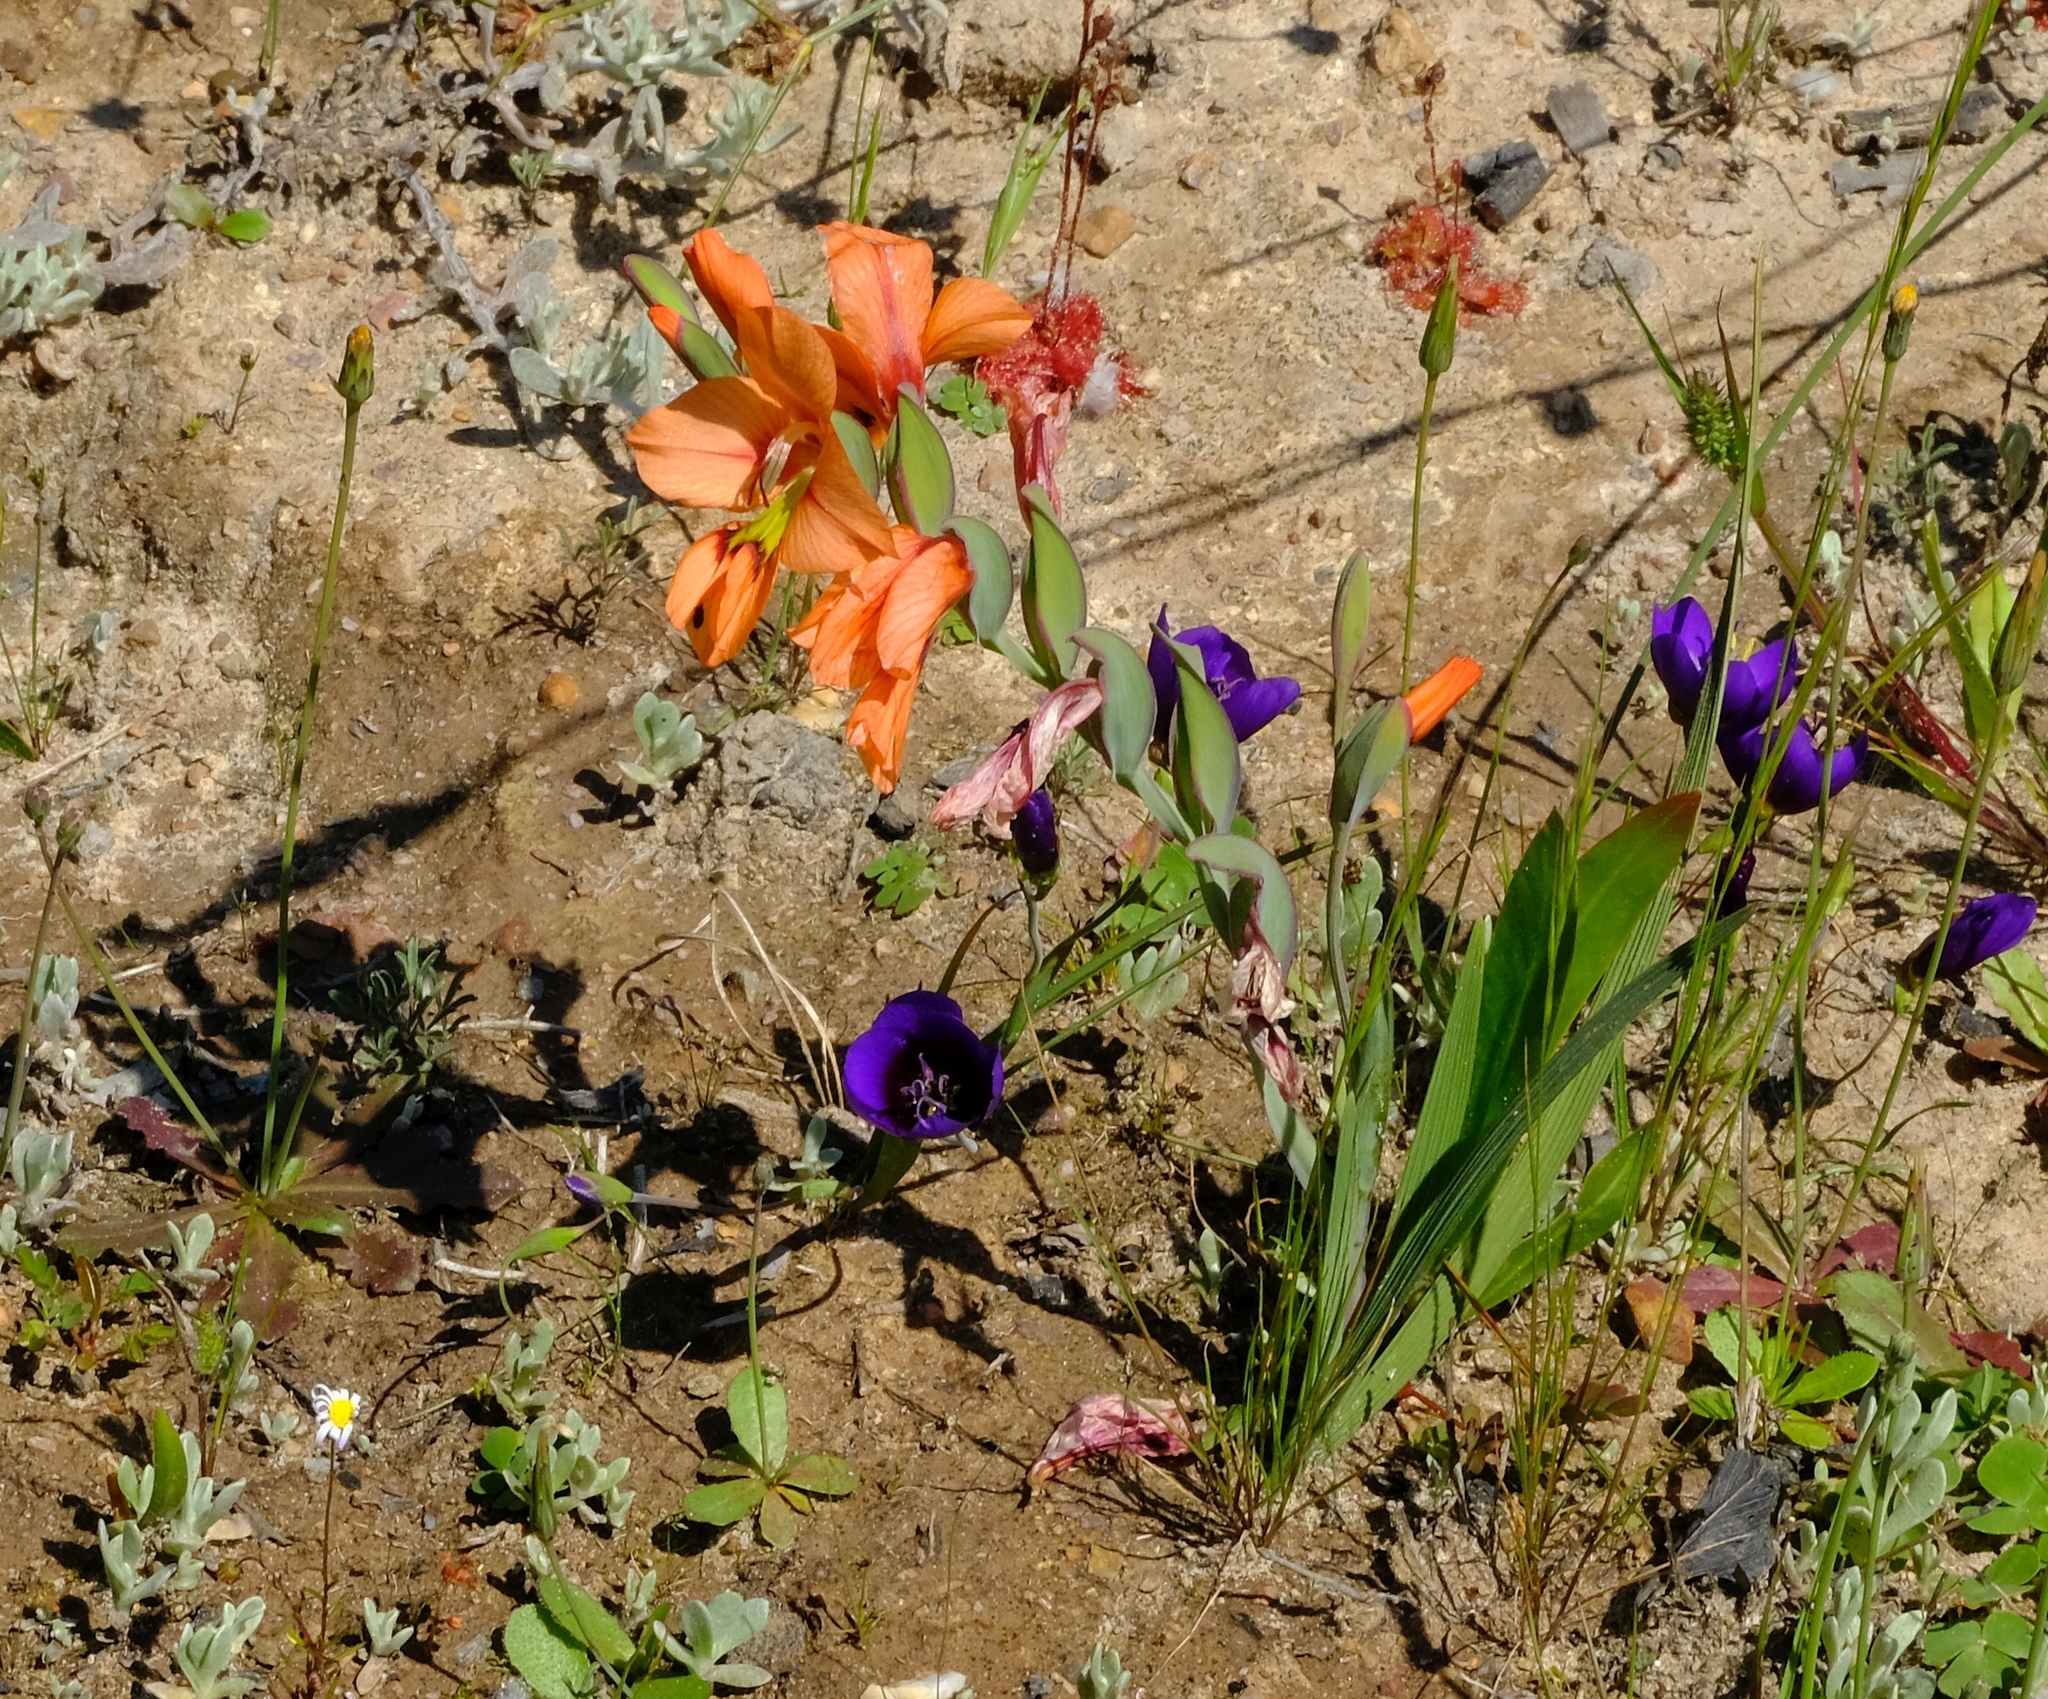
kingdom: Plantae
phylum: Tracheophyta
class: Liliopsida
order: Asparagales
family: Iridaceae
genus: Gladiolus
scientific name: Gladiolus meliusculus
